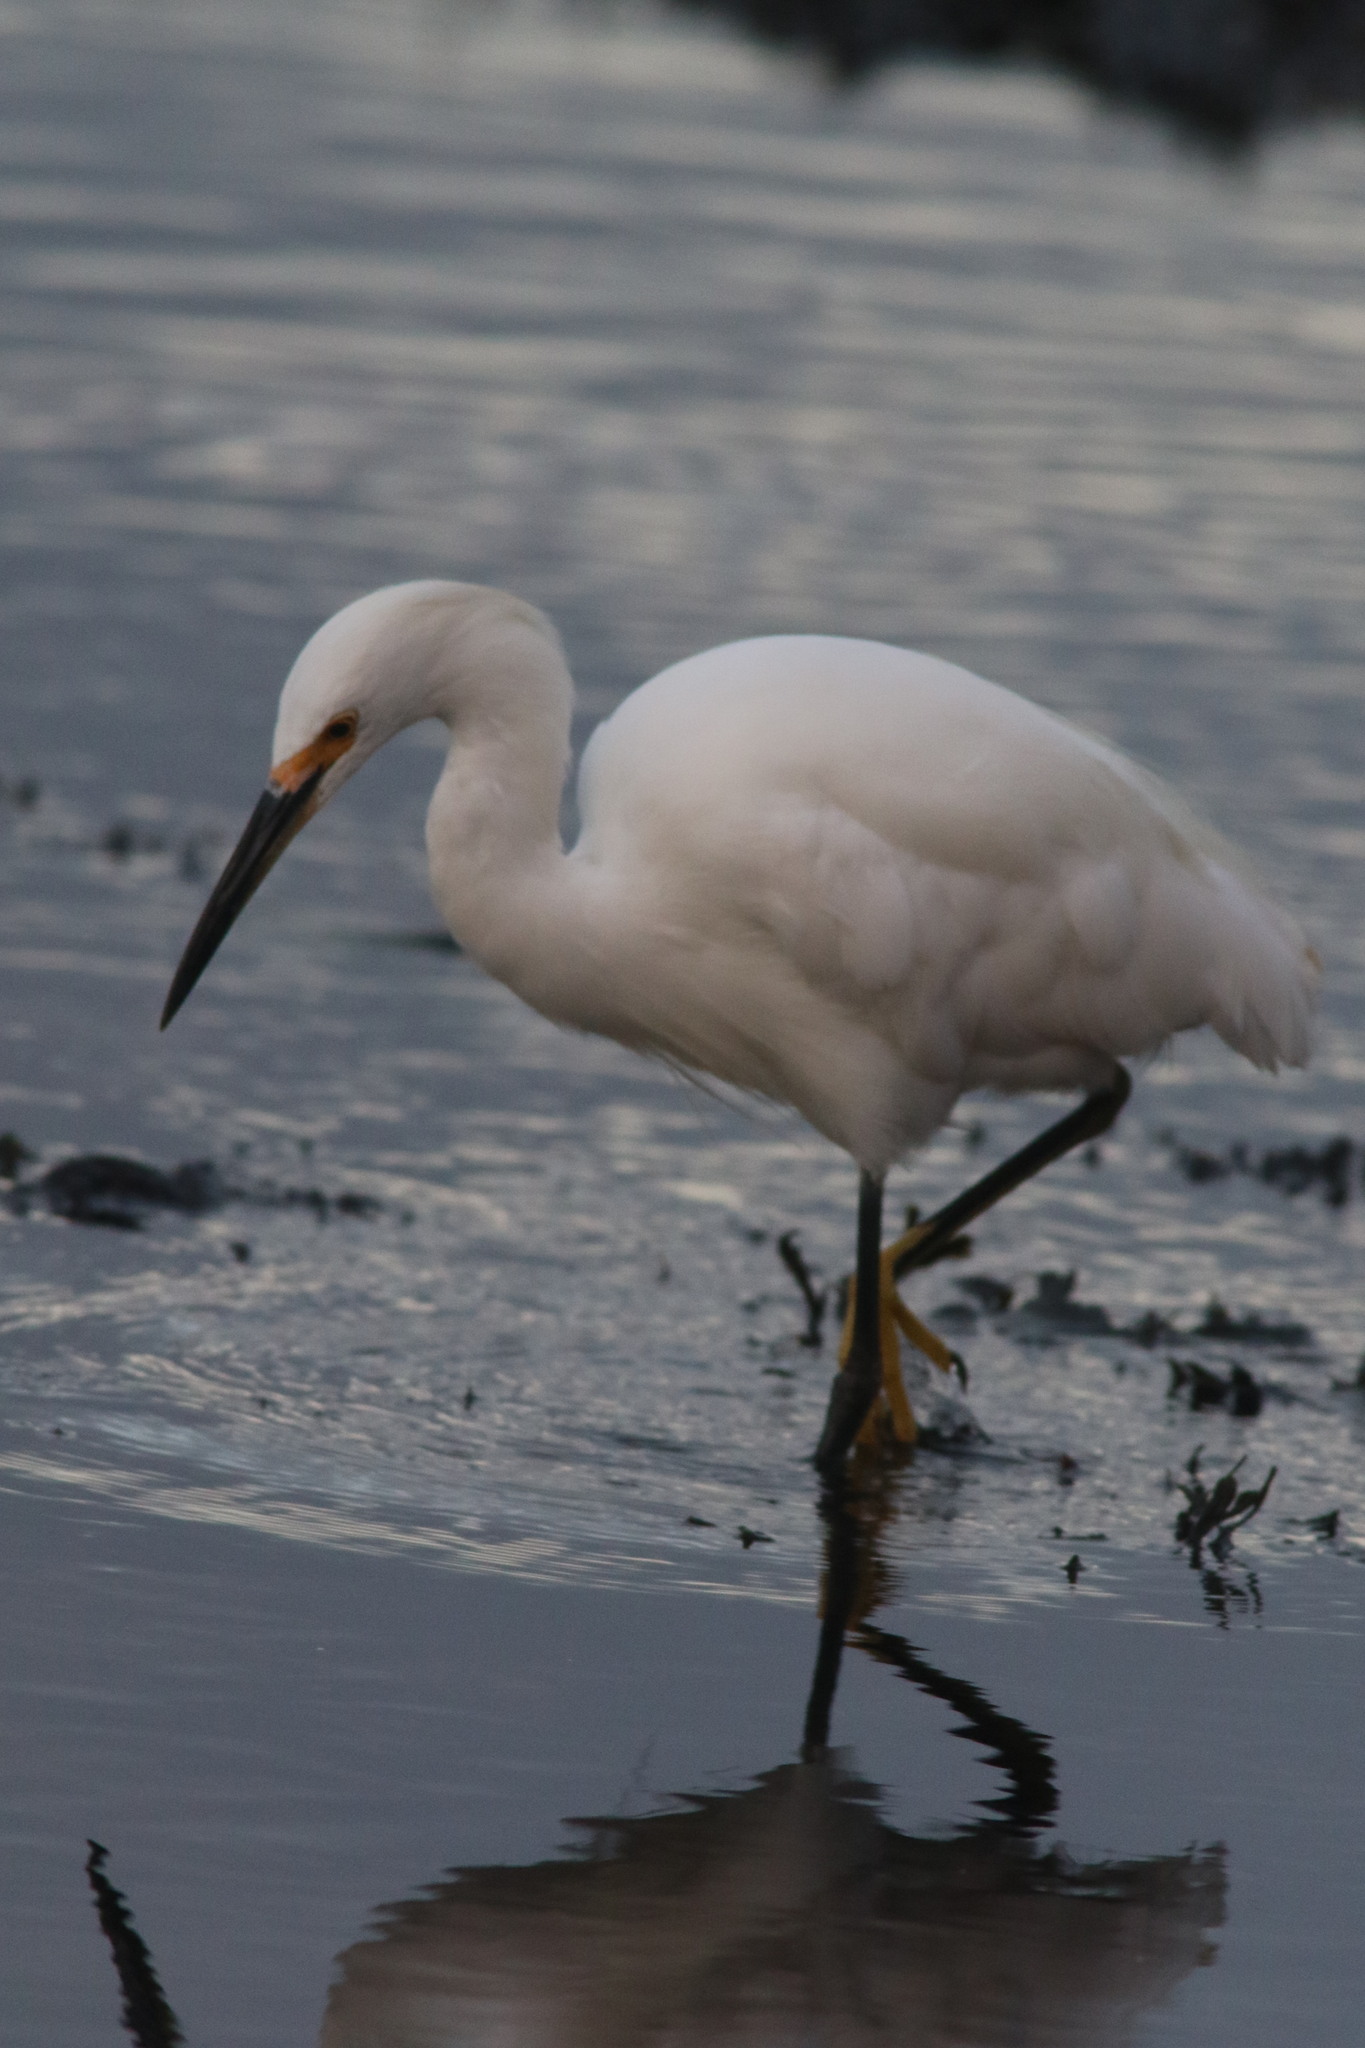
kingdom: Animalia
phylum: Chordata
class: Aves
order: Pelecaniformes
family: Ardeidae
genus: Egretta
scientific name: Egretta thula
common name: Snowy egret
